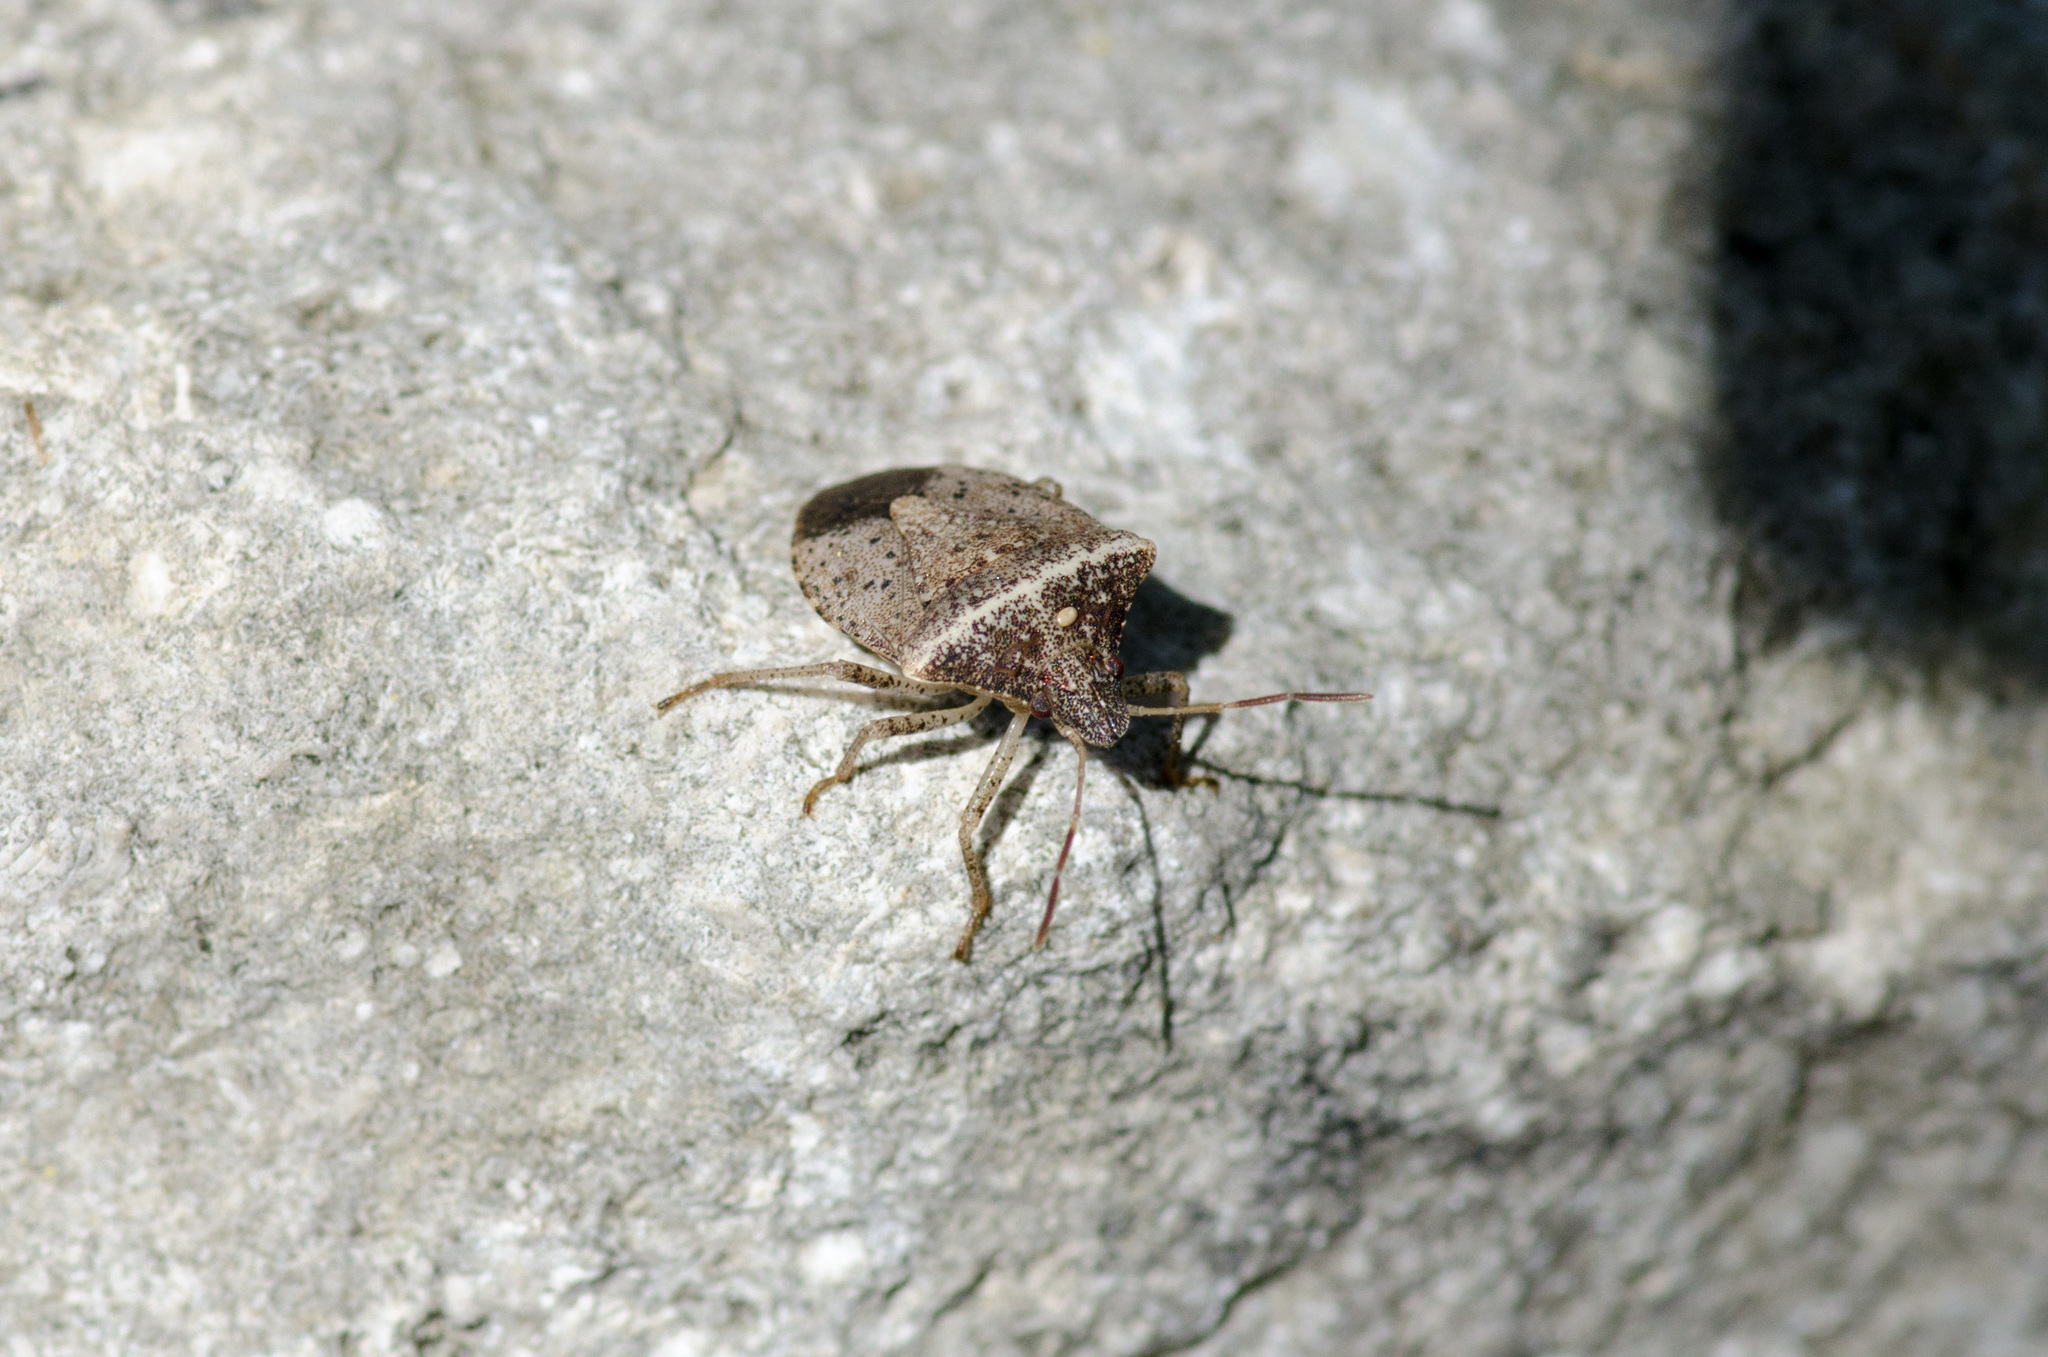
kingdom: Animalia
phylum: Arthropoda
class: Insecta
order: Hemiptera
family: Pentatomidae
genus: Euschistus
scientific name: Euschistus obscurus
